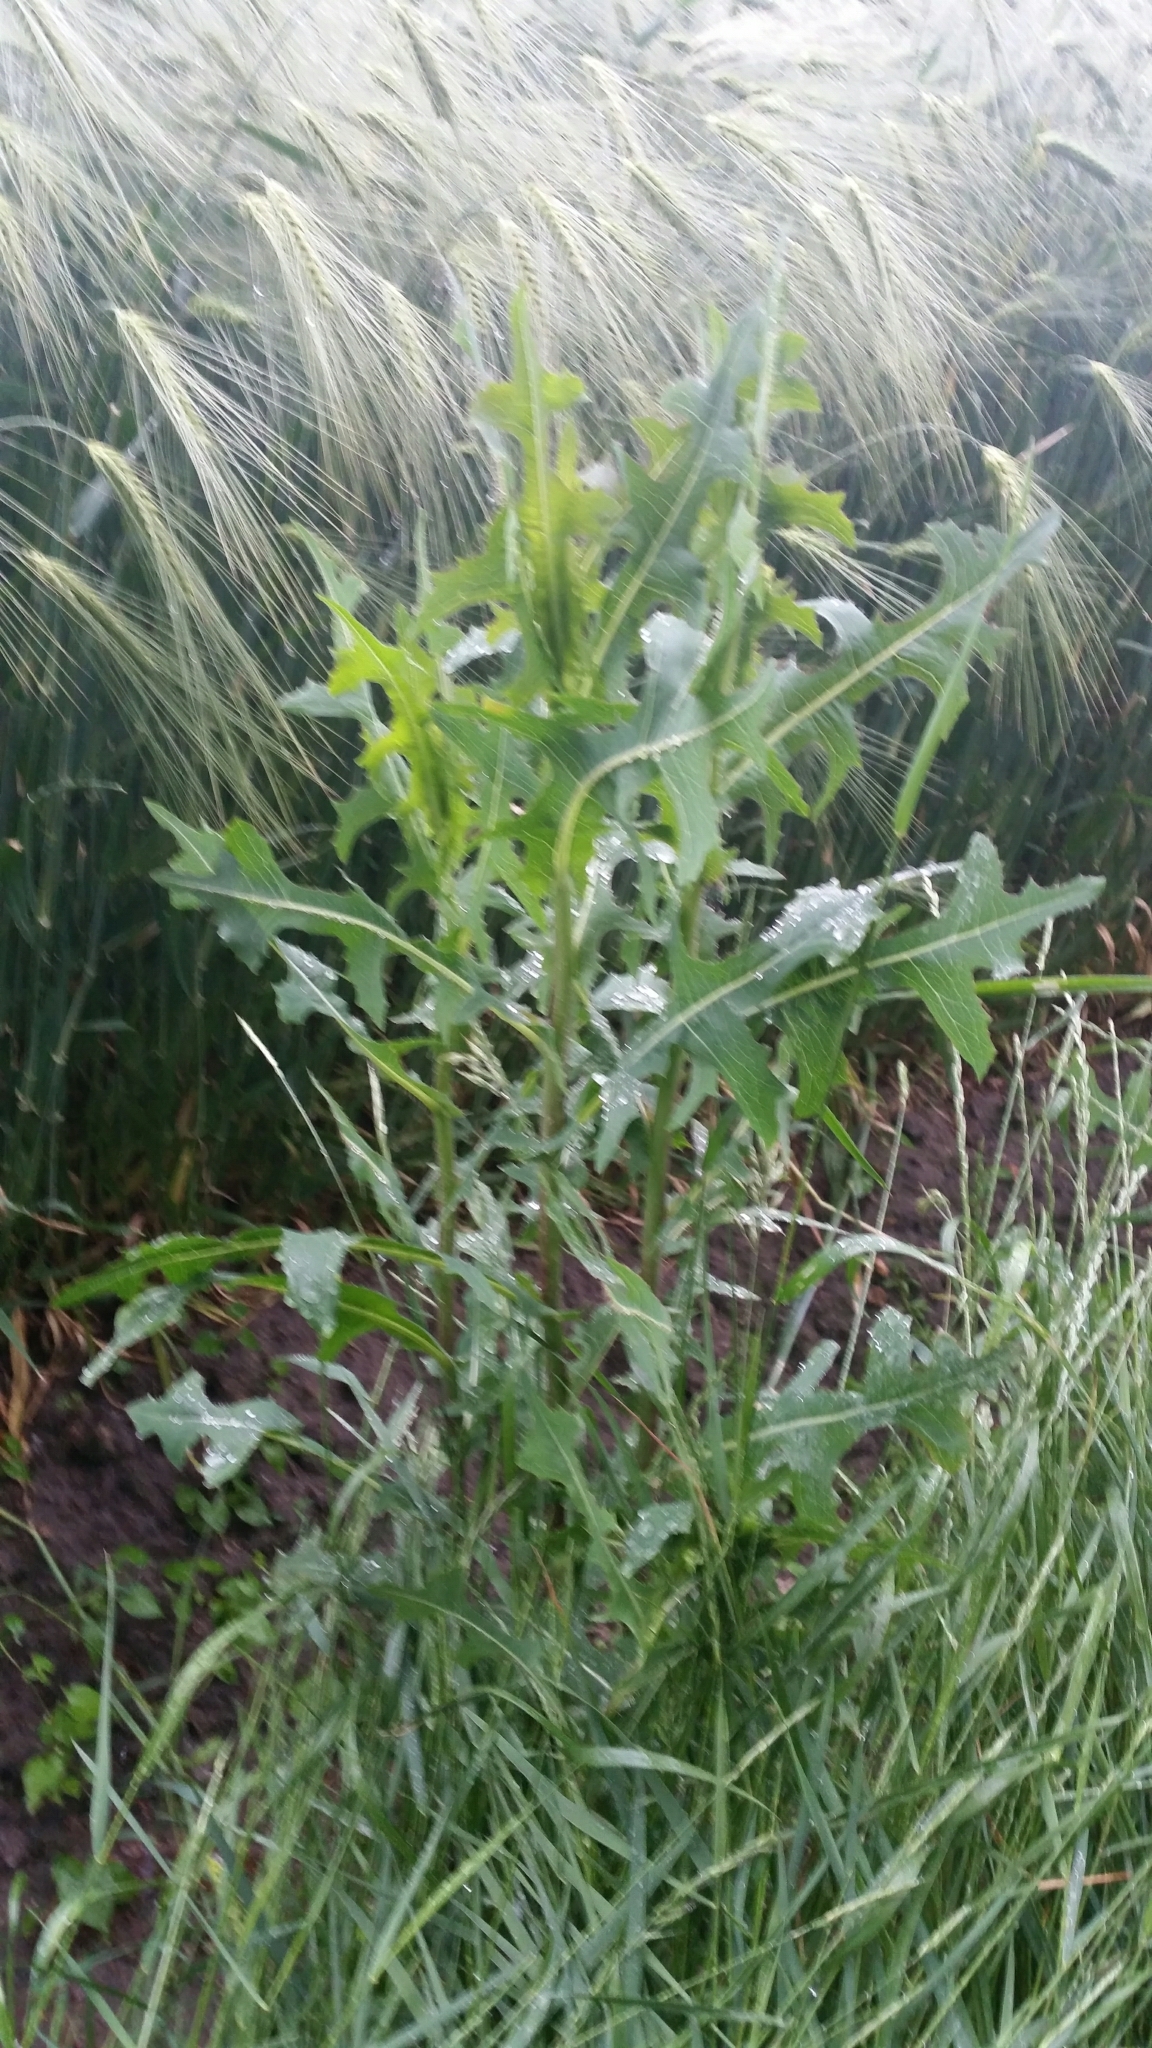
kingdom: Plantae
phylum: Tracheophyta
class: Magnoliopsida
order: Asterales
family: Asteraceae
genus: Lactuca
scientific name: Lactuca serriola
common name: Prickly lettuce
